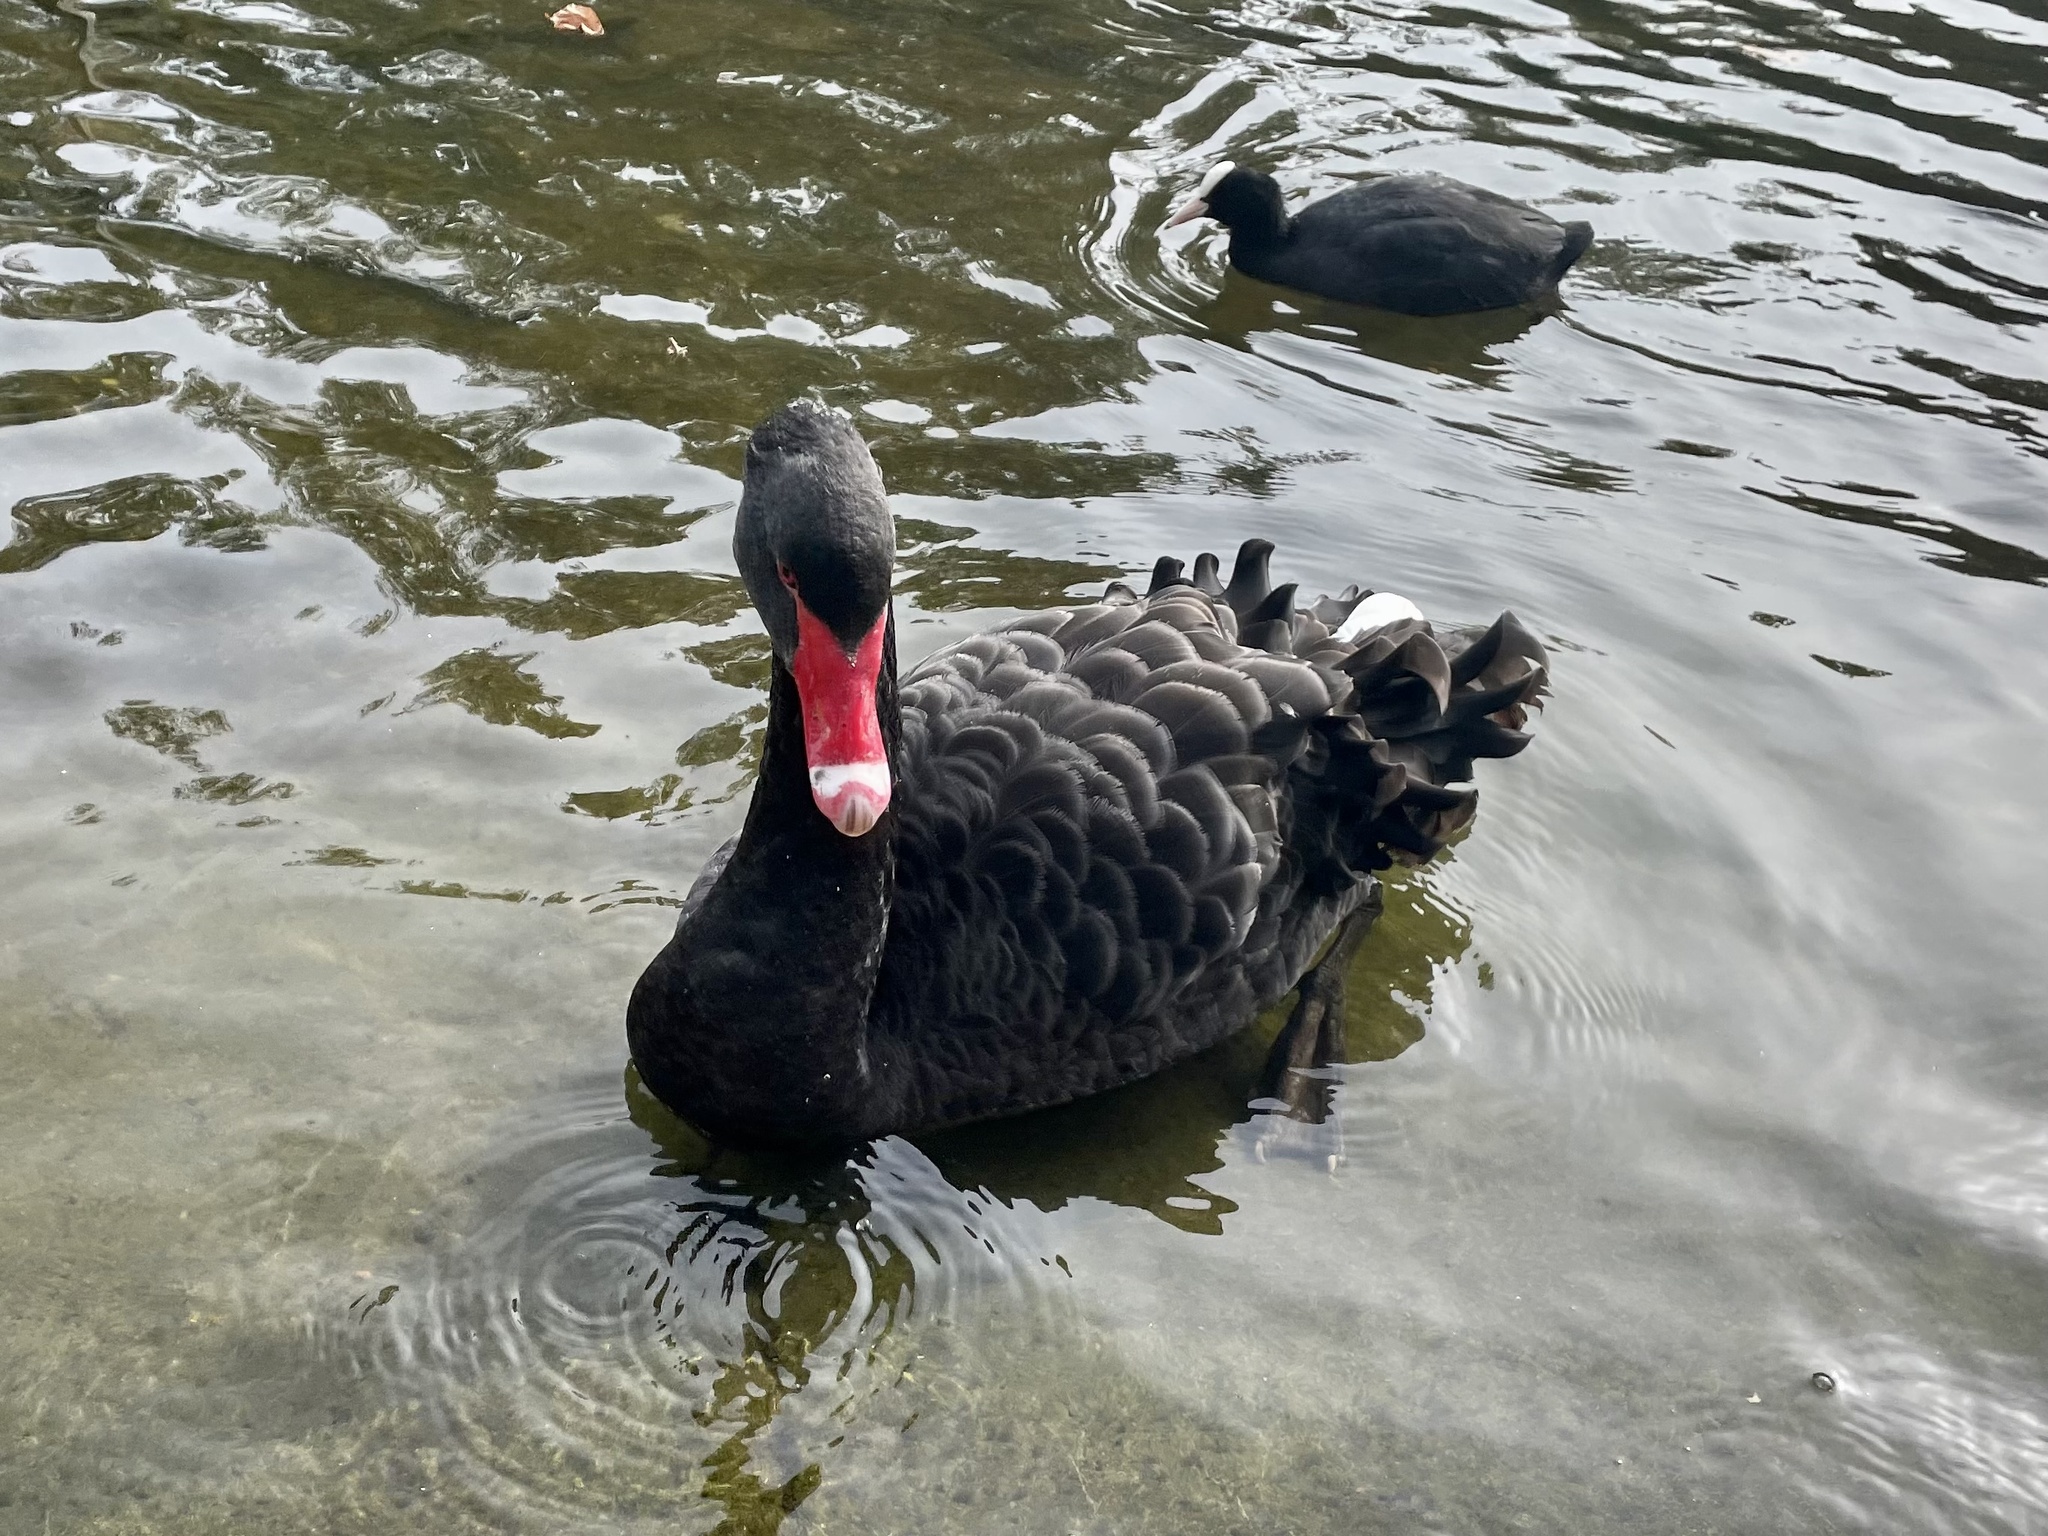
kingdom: Animalia
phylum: Chordata
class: Aves
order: Anseriformes
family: Anatidae
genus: Cygnus
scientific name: Cygnus atratus
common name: Black swan
